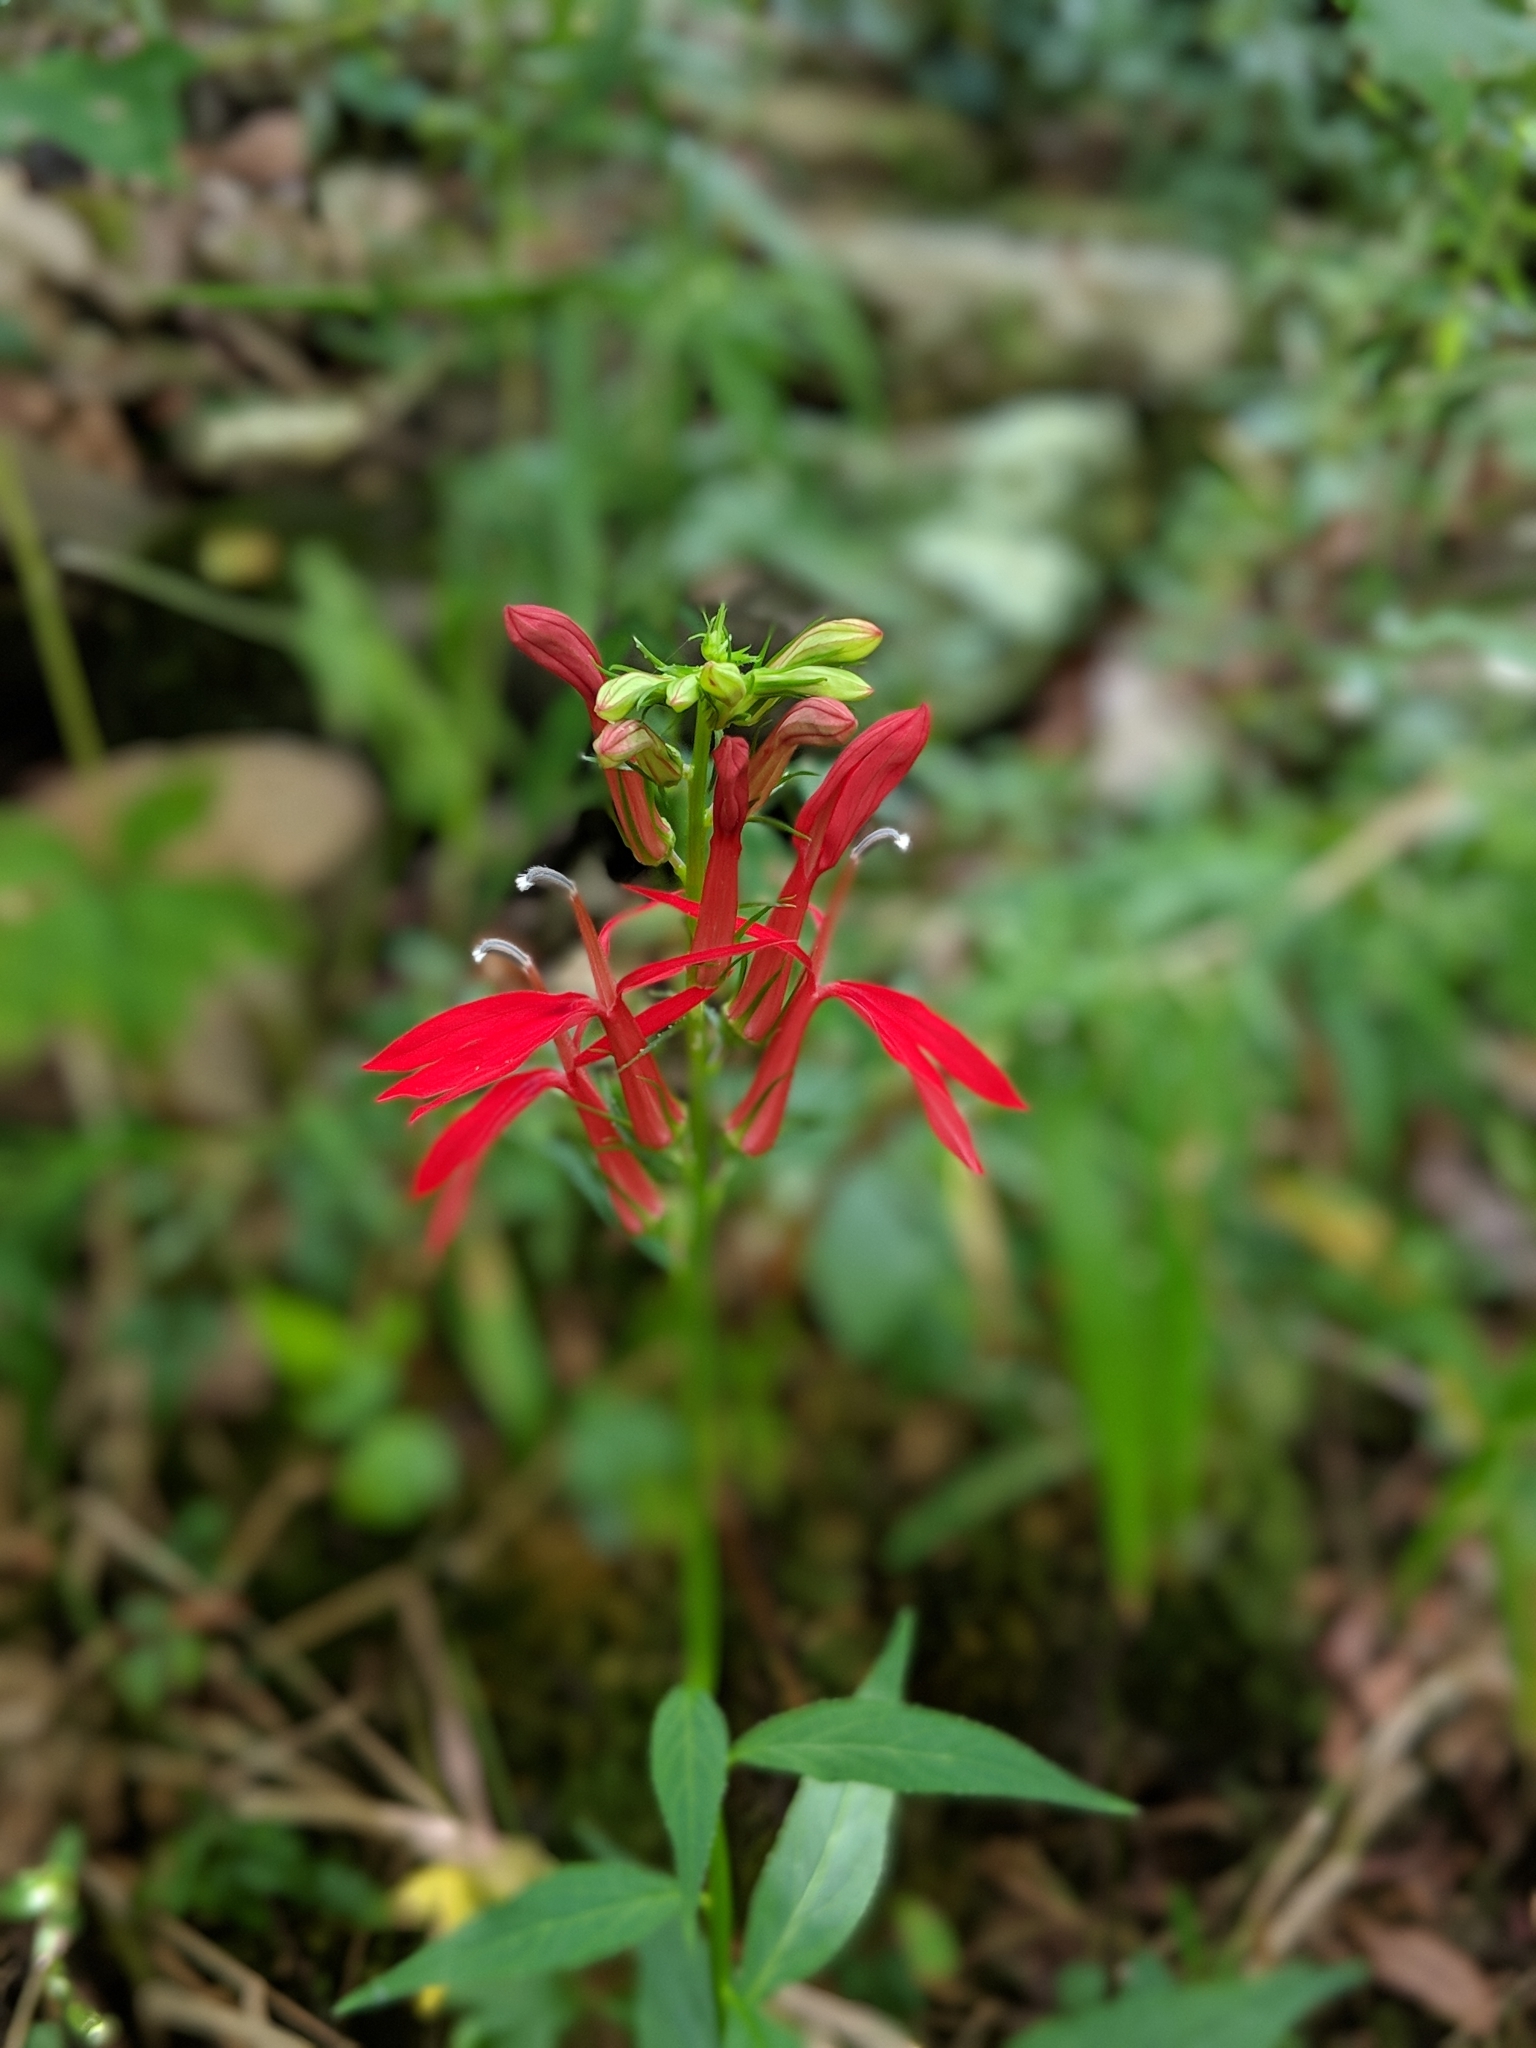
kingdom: Plantae
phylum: Tracheophyta
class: Magnoliopsida
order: Asterales
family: Campanulaceae
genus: Lobelia
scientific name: Lobelia cardinalis
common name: Cardinal flower
